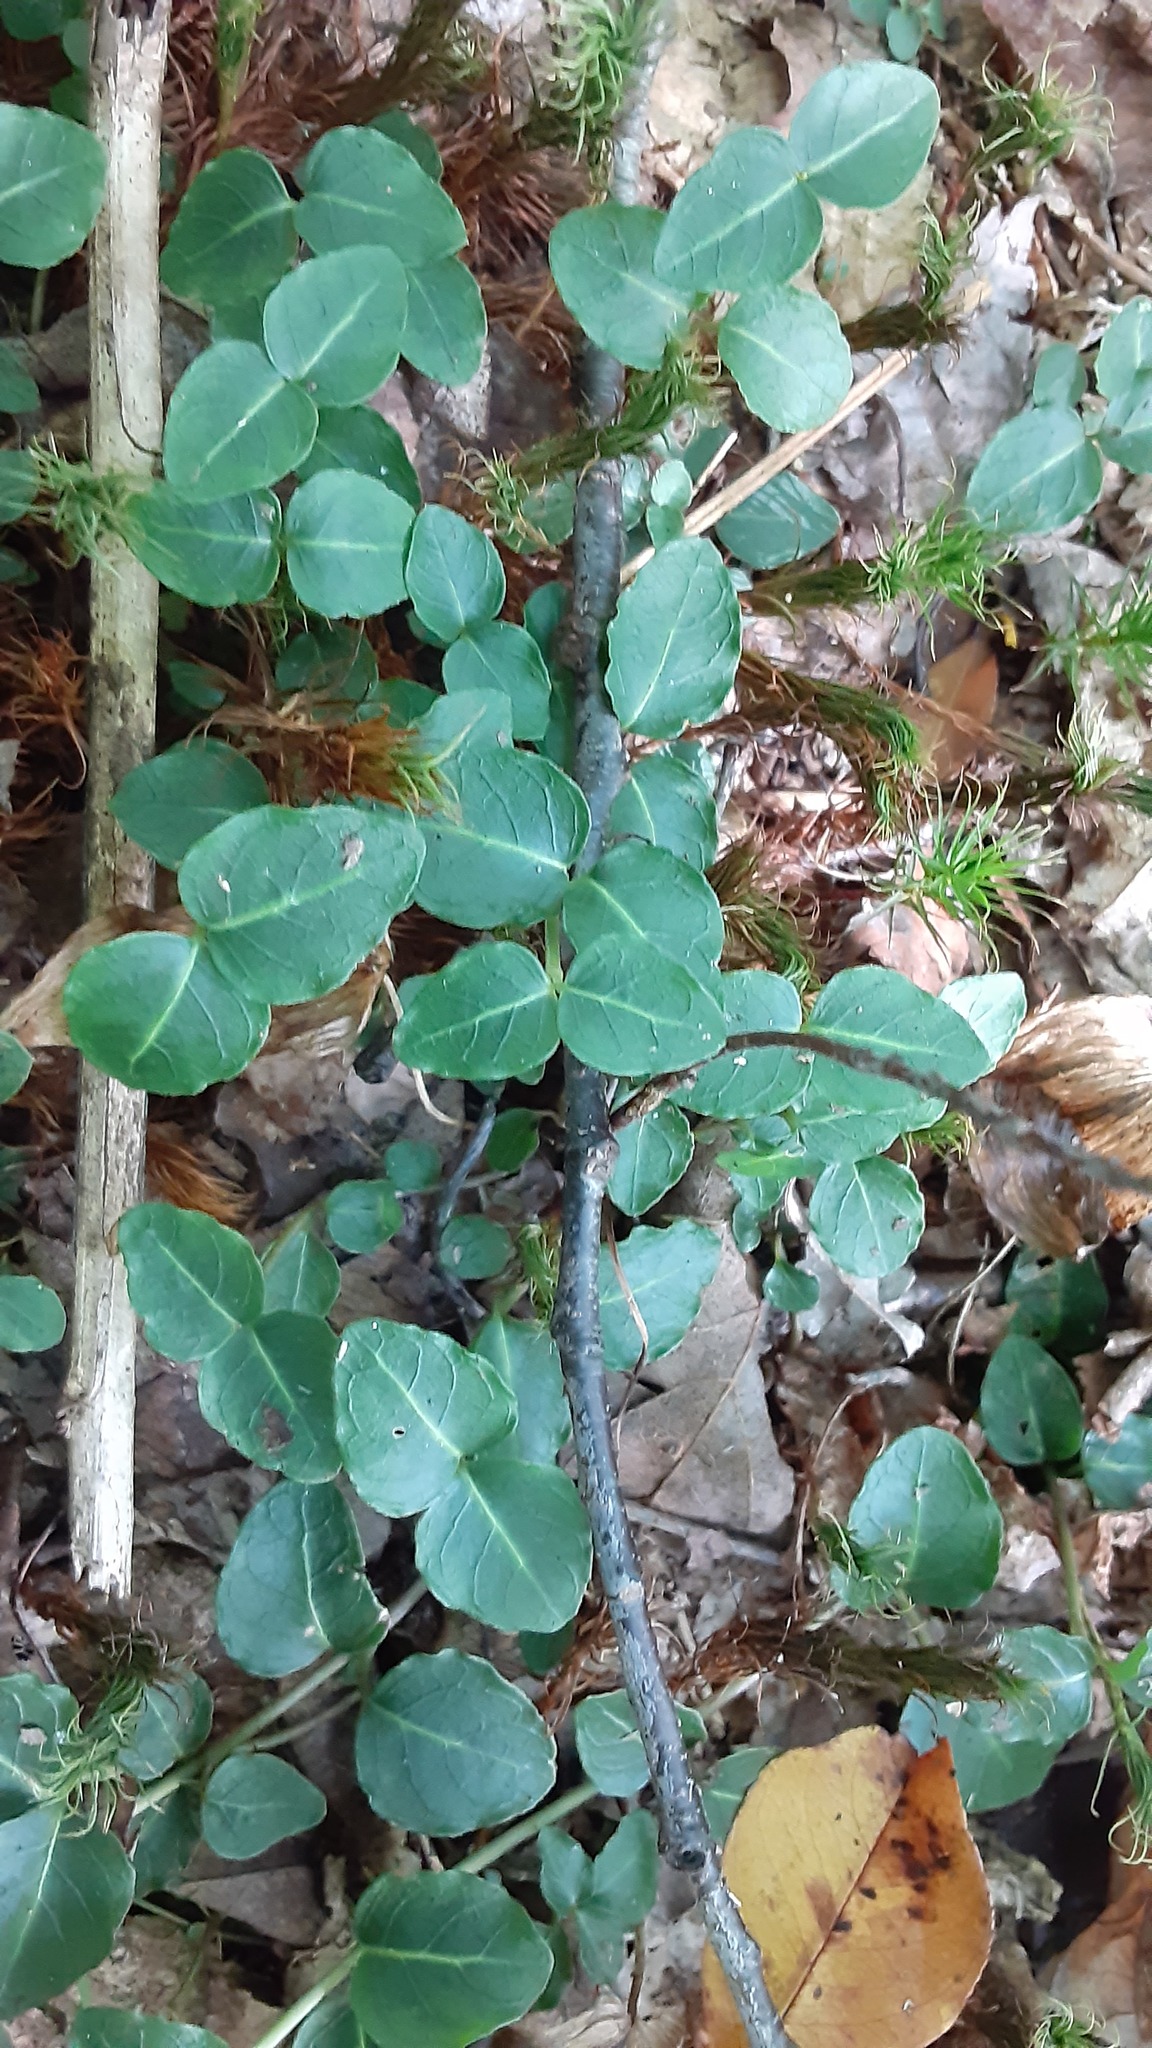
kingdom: Plantae
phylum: Tracheophyta
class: Magnoliopsida
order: Gentianales
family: Rubiaceae
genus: Mitchella
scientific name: Mitchella repens
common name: Partridge-berry
